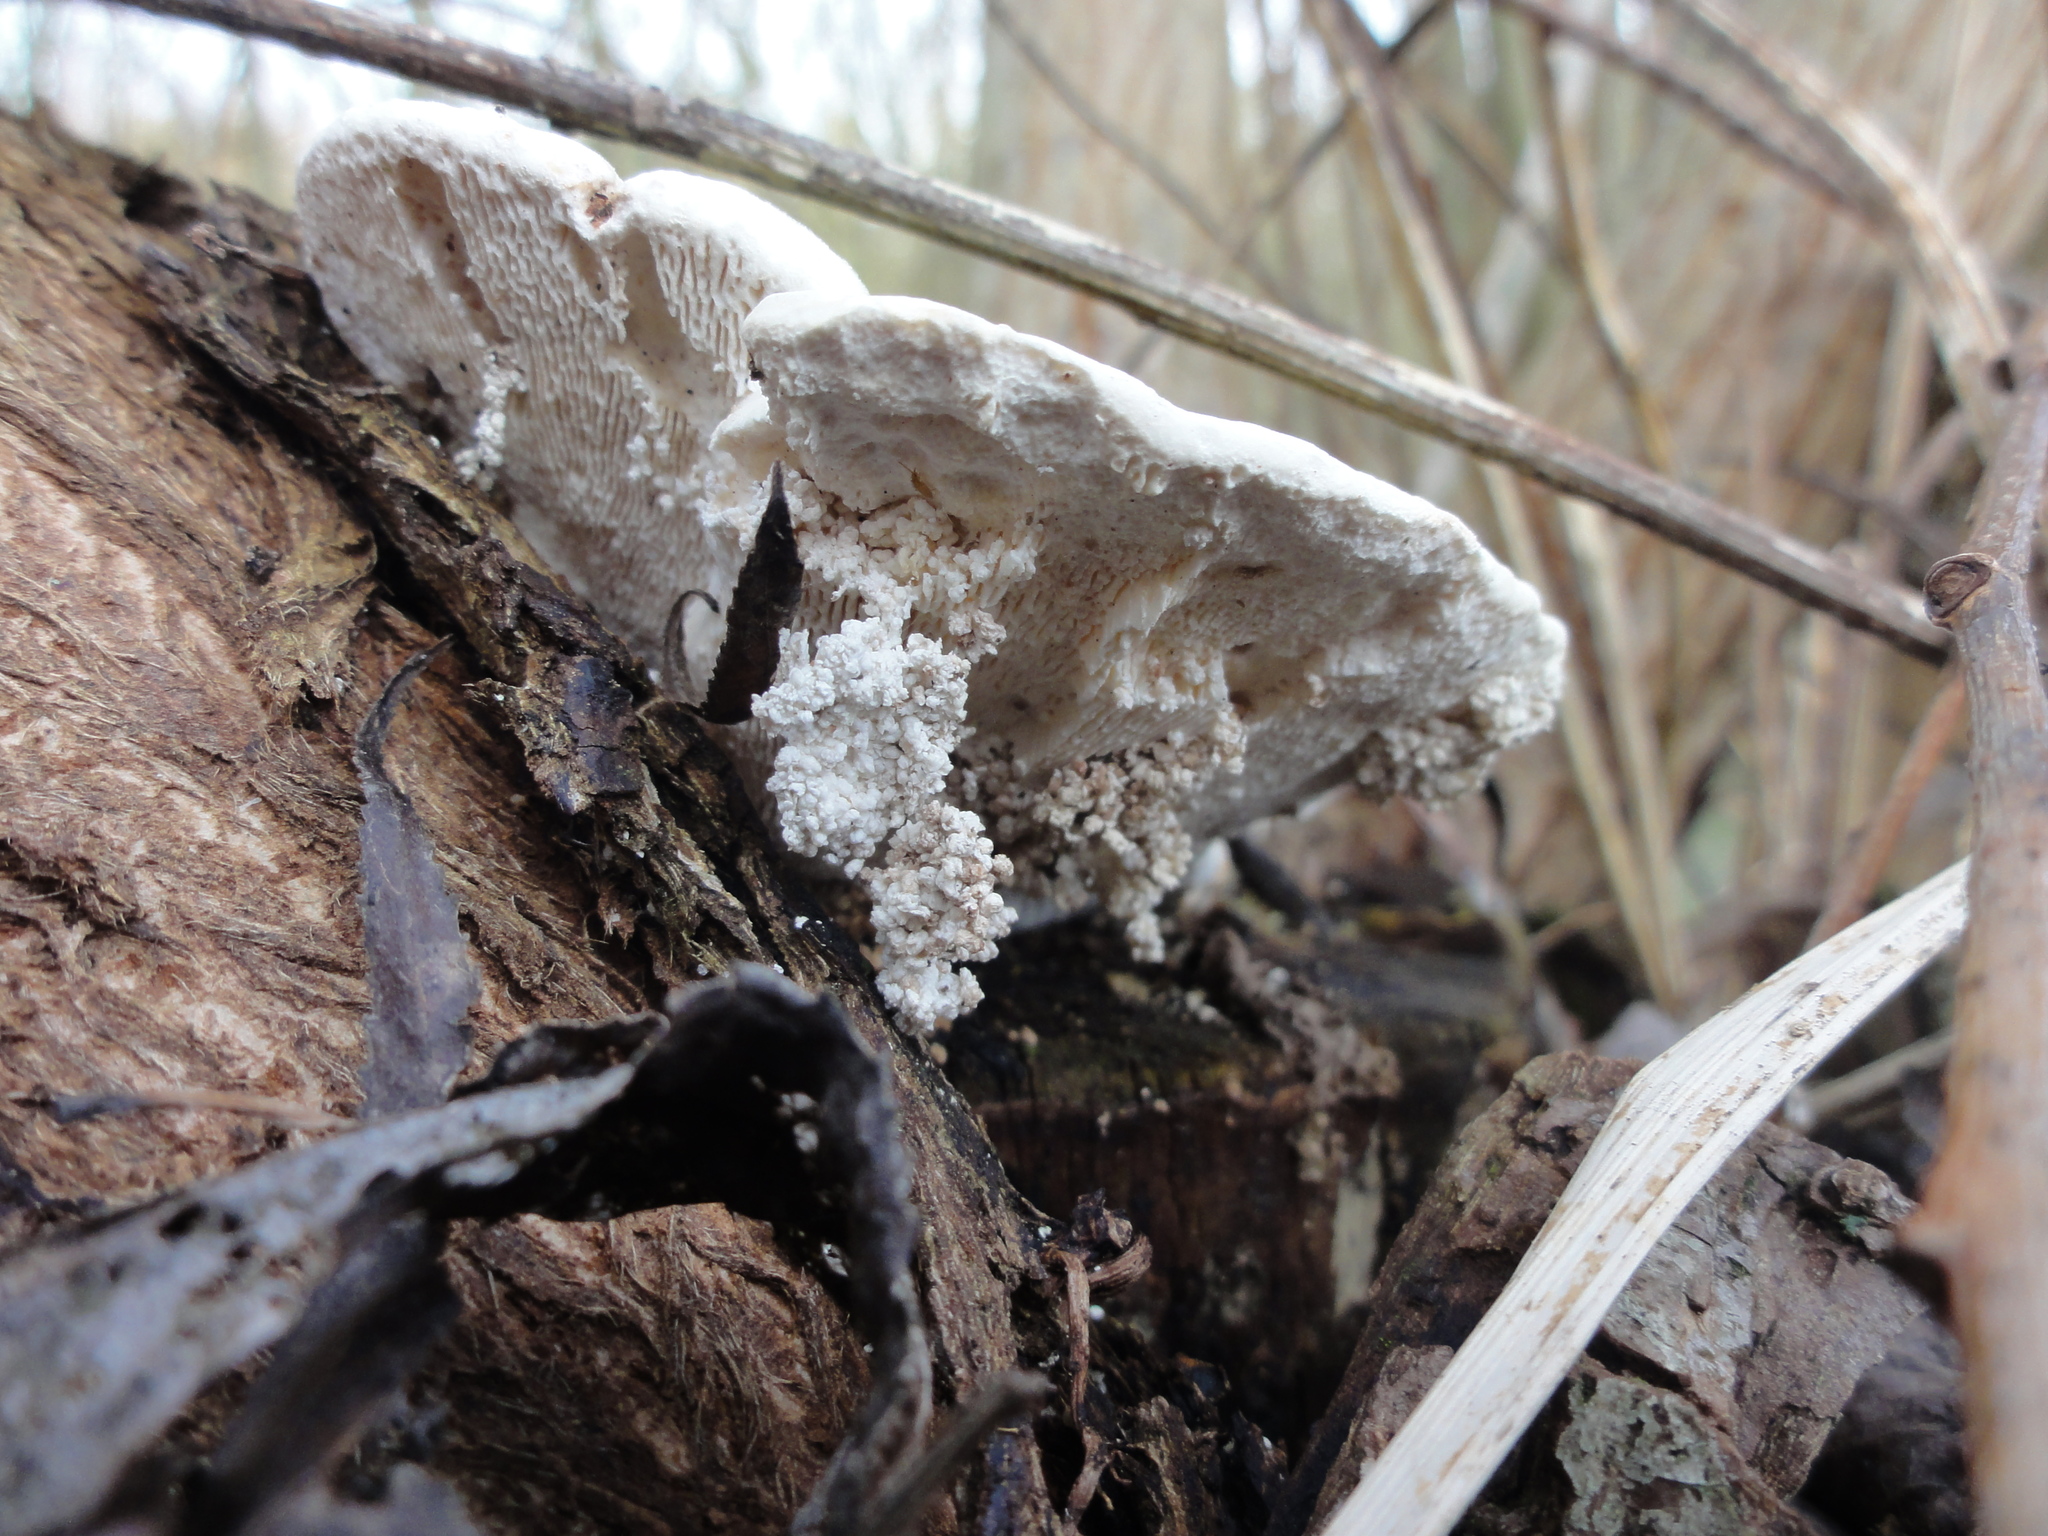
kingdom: Fungi
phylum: Basidiomycota
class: Agaricomycetes
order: Polyporales
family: Polyporaceae
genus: Trametes
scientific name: Trametes gibbosa
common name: Lumpy bracket
